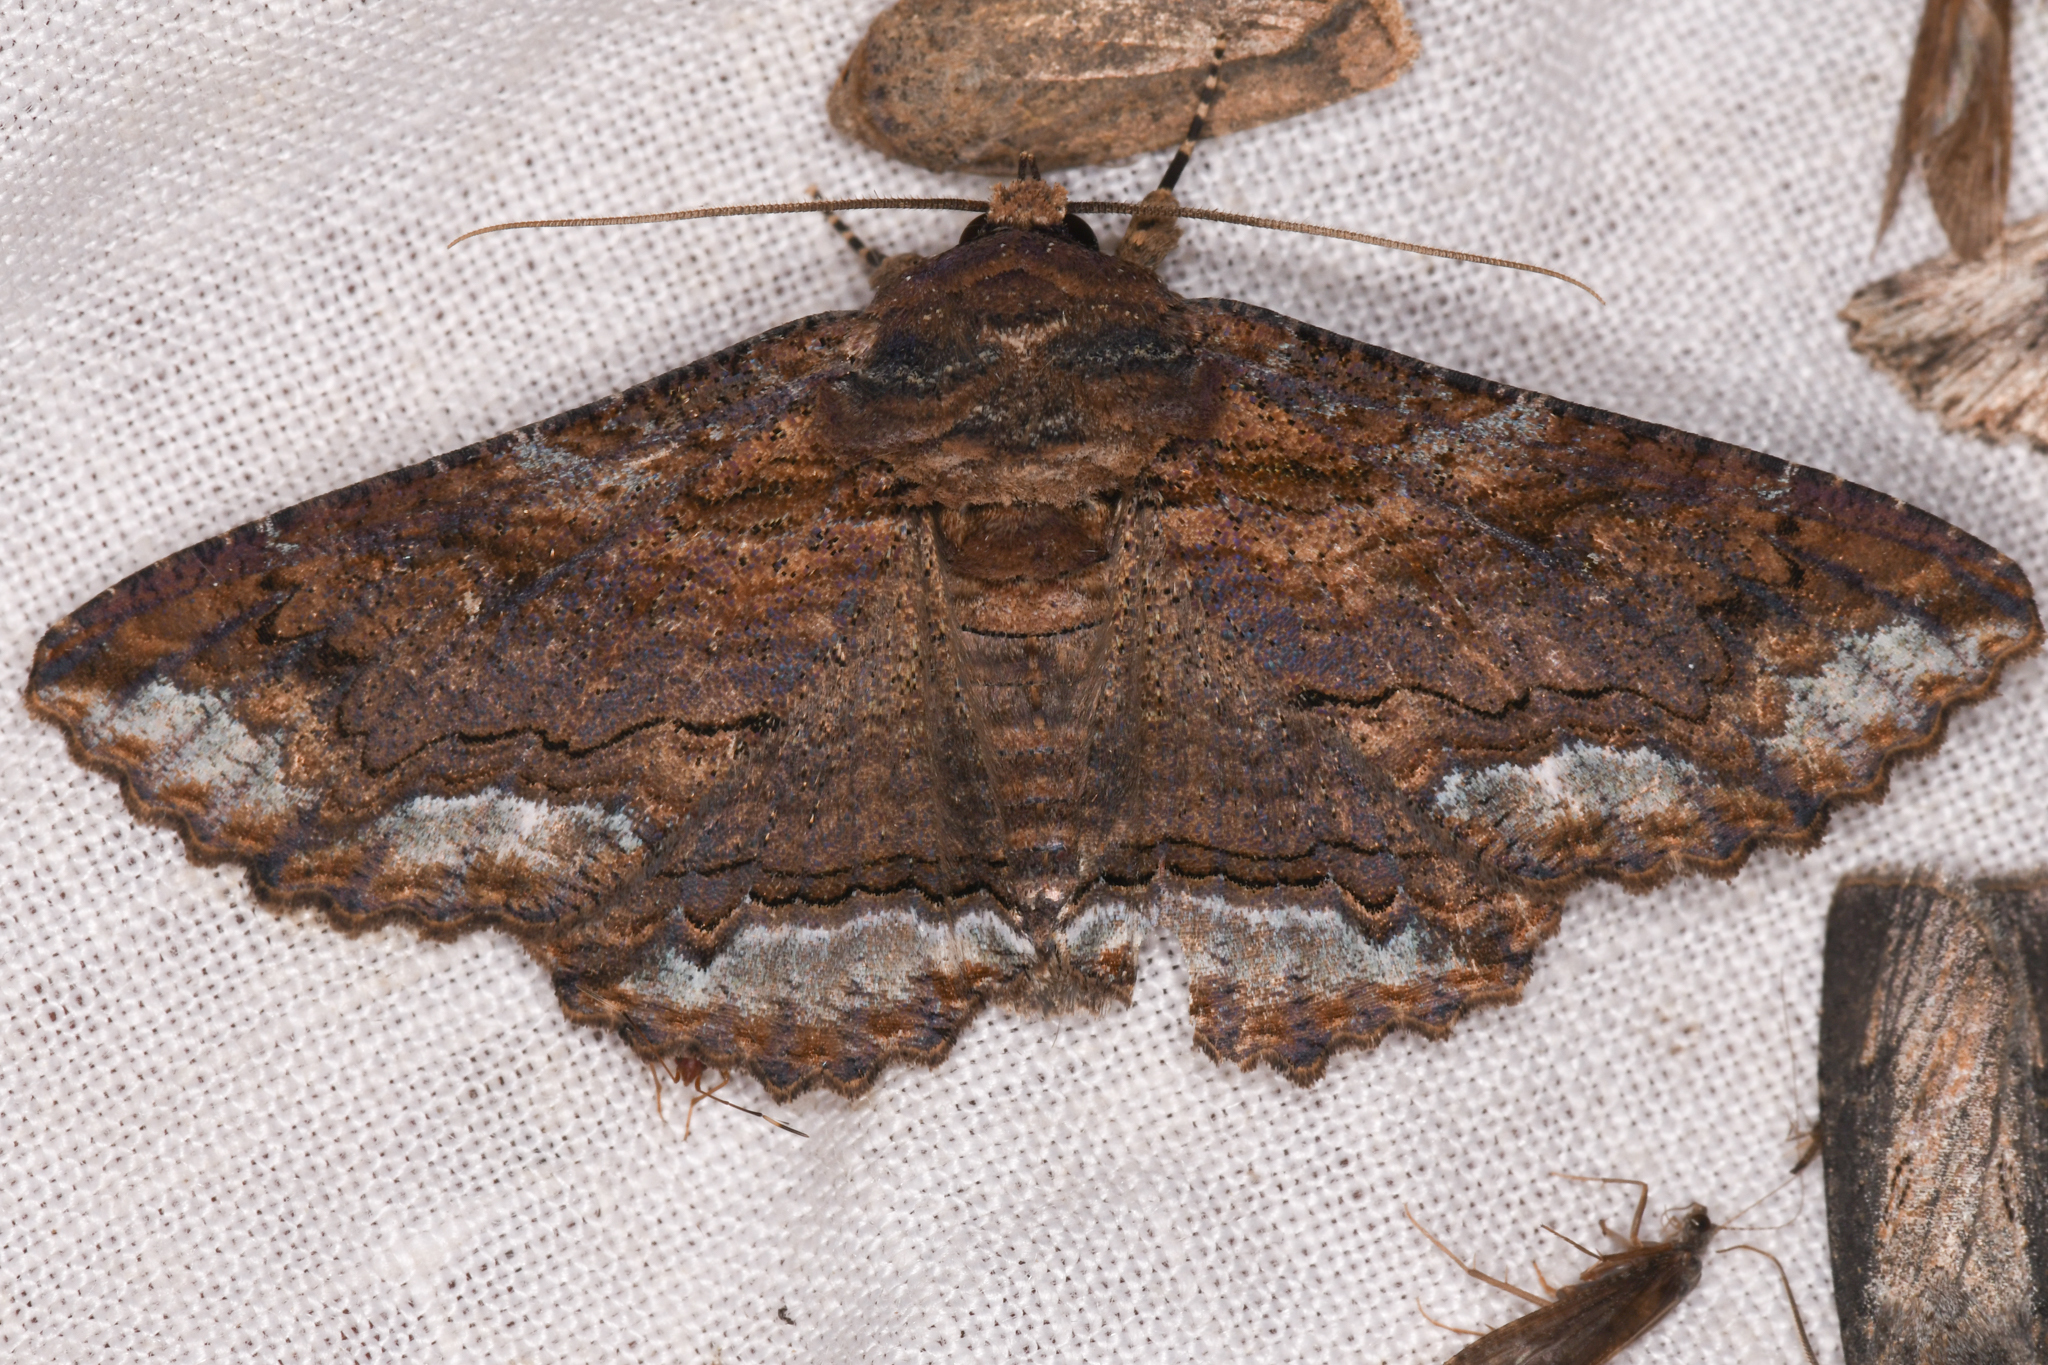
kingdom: Animalia
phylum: Arthropoda
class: Insecta
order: Lepidoptera
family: Erebidae
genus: Zale
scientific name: Zale lunata
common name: Lunate zale moth
